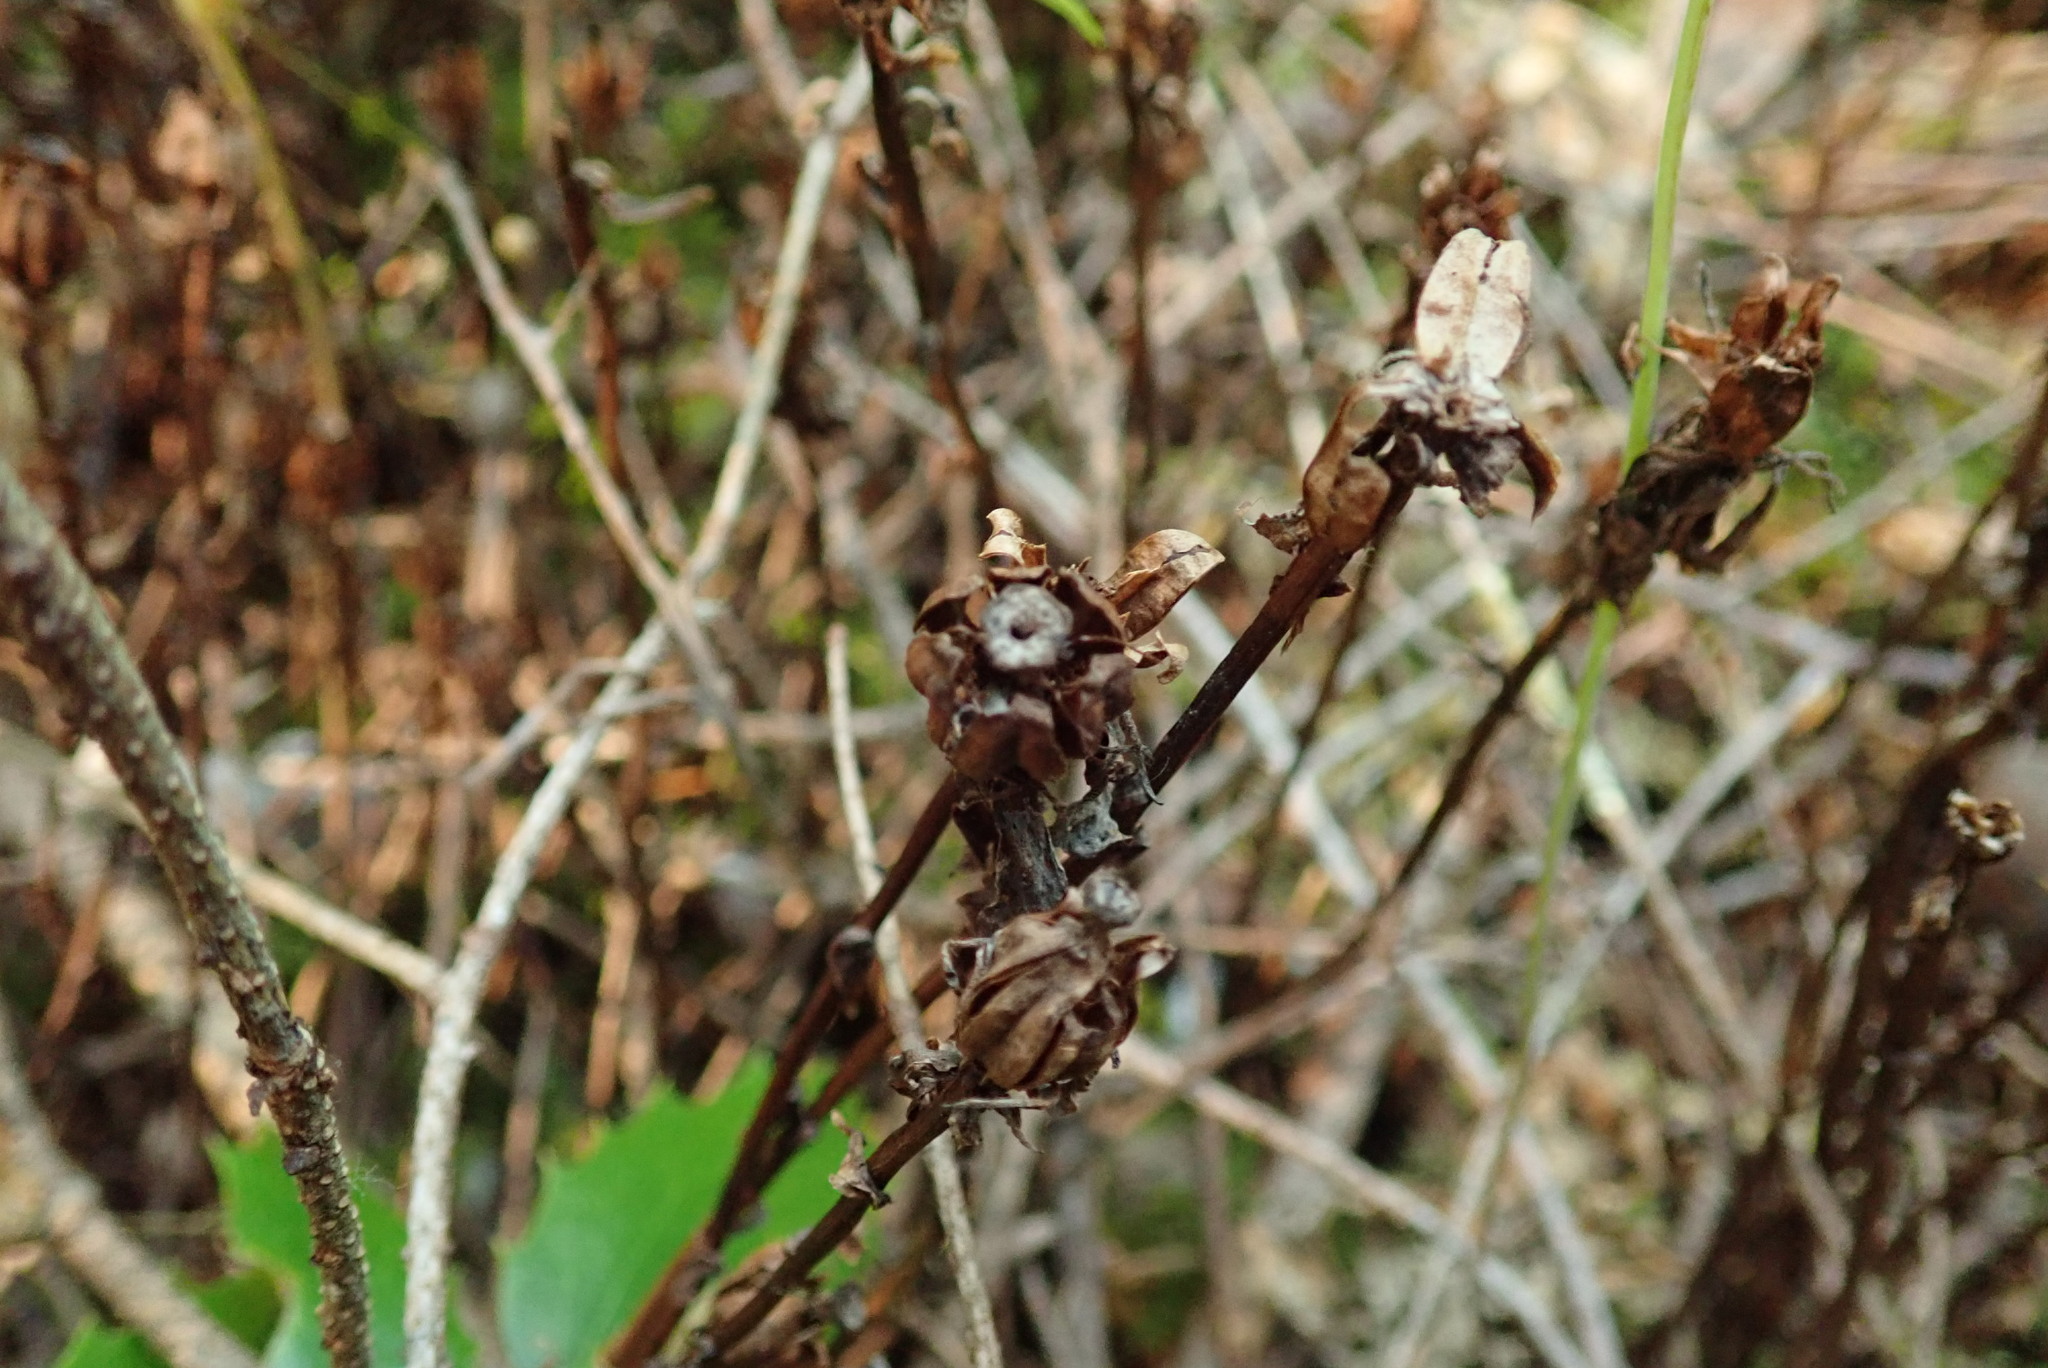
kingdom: Plantae
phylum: Tracheophyta
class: Magnoliopsida
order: Ericales
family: Ericaceae
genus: Monotropa
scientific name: Monotropa uniflora
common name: Convulsion root
